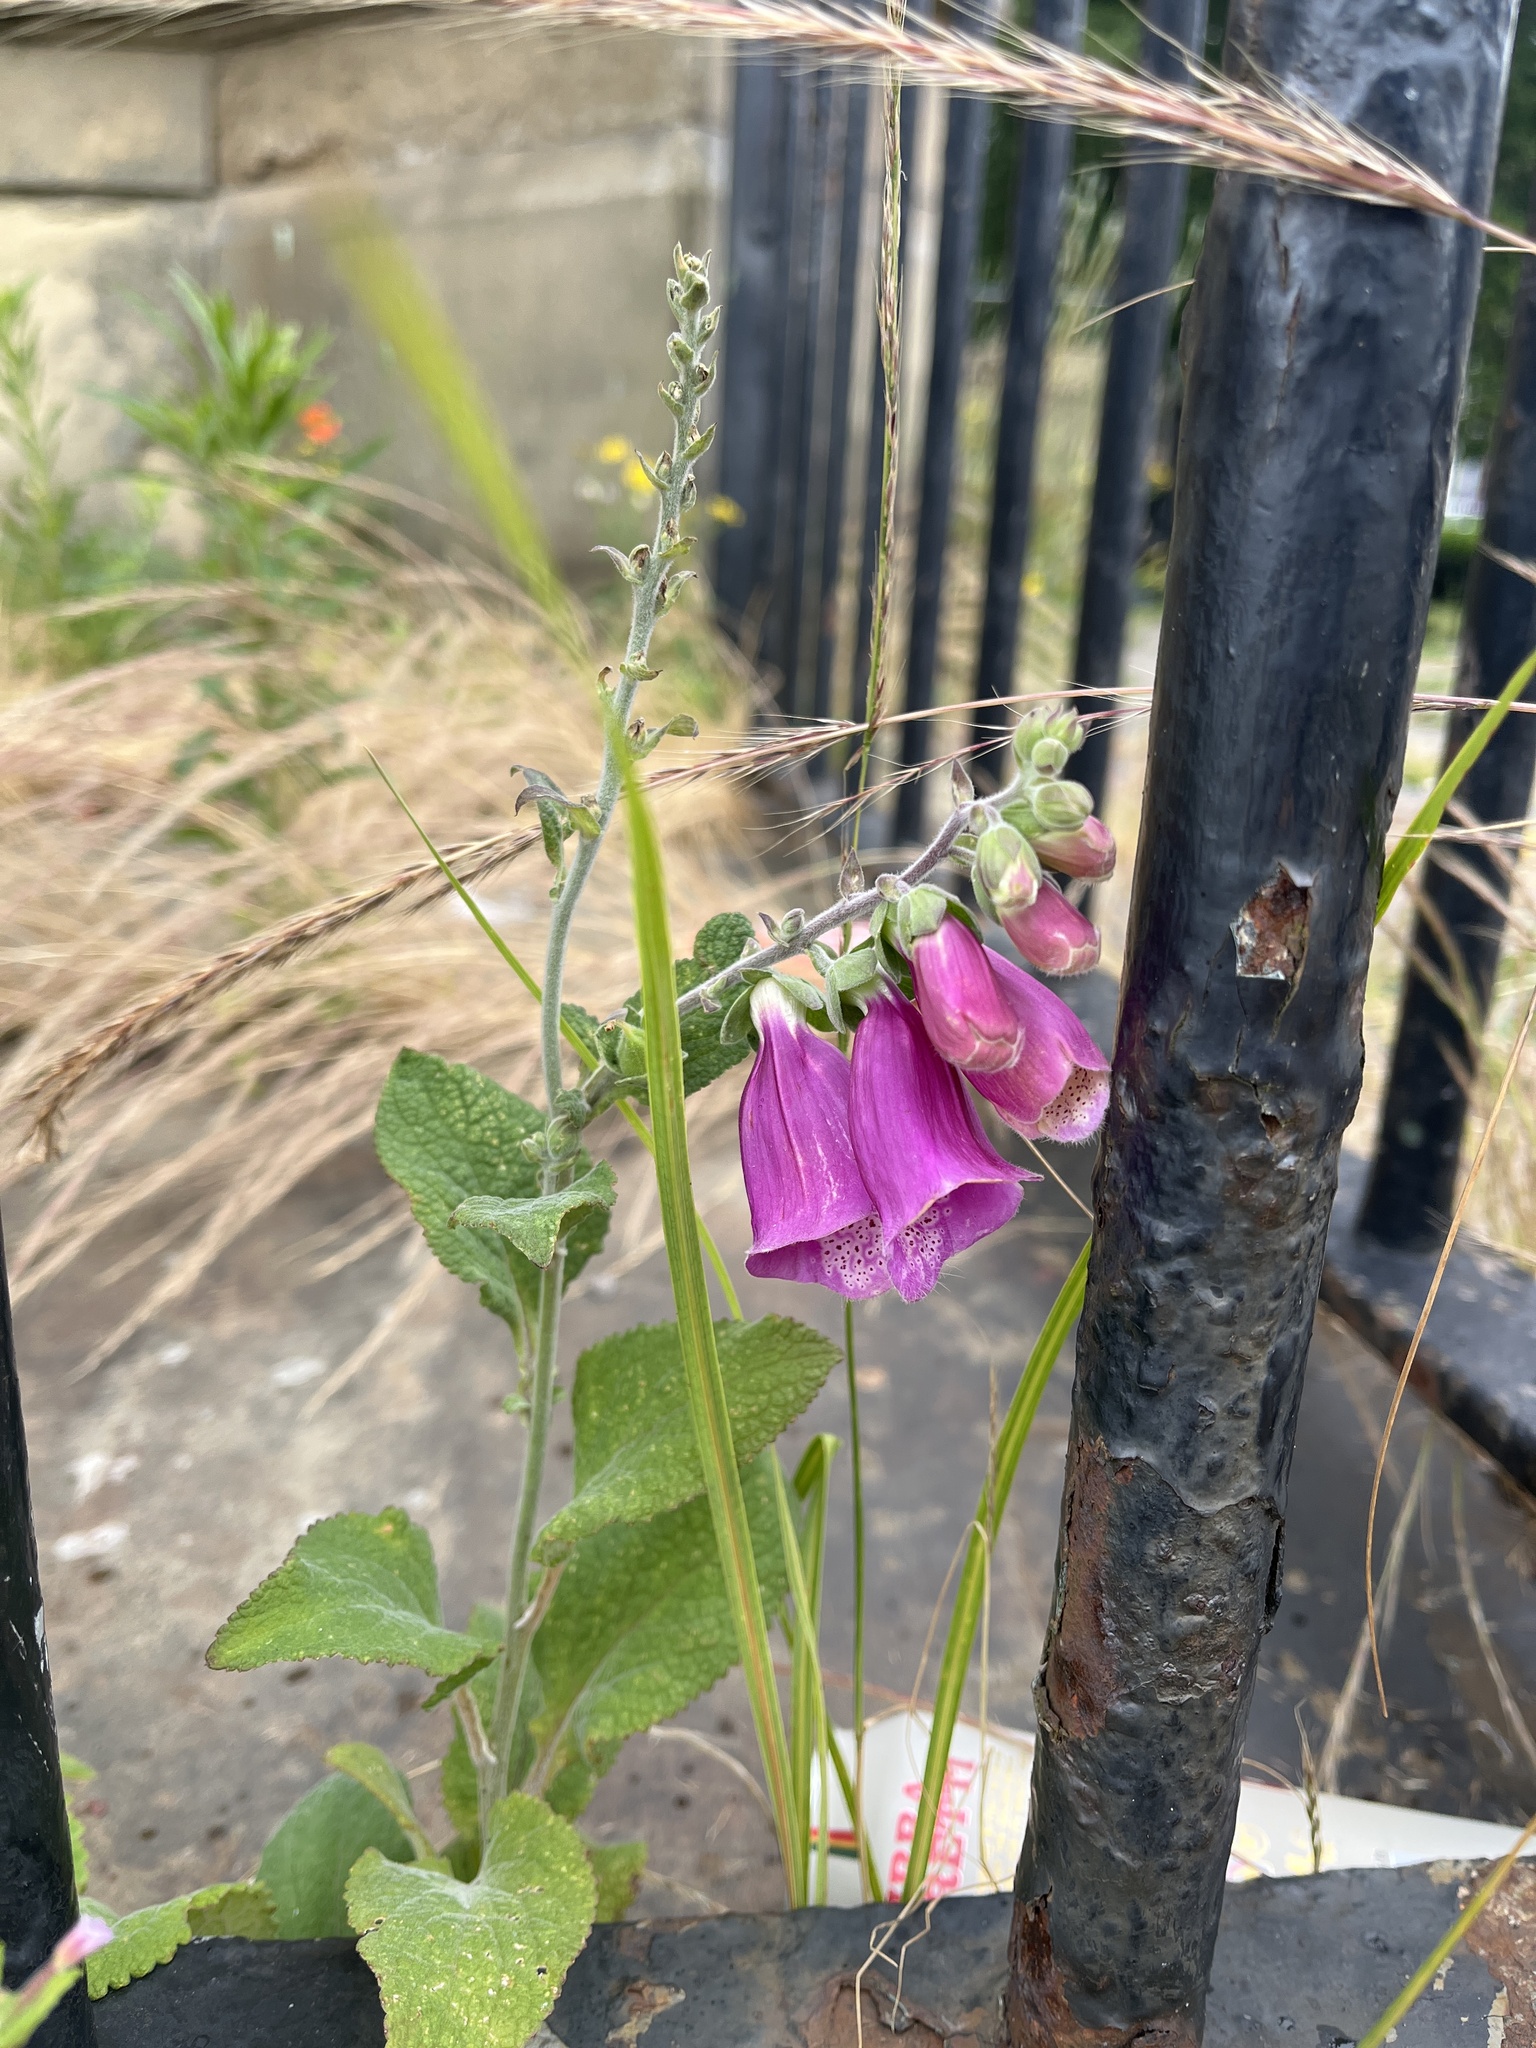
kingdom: Plantae
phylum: Tracheophyta
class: Magnoliopsida
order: Lamiales
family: Plantaginaceae
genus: Digitalis
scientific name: Digitalis purpurea
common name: Foxglove
